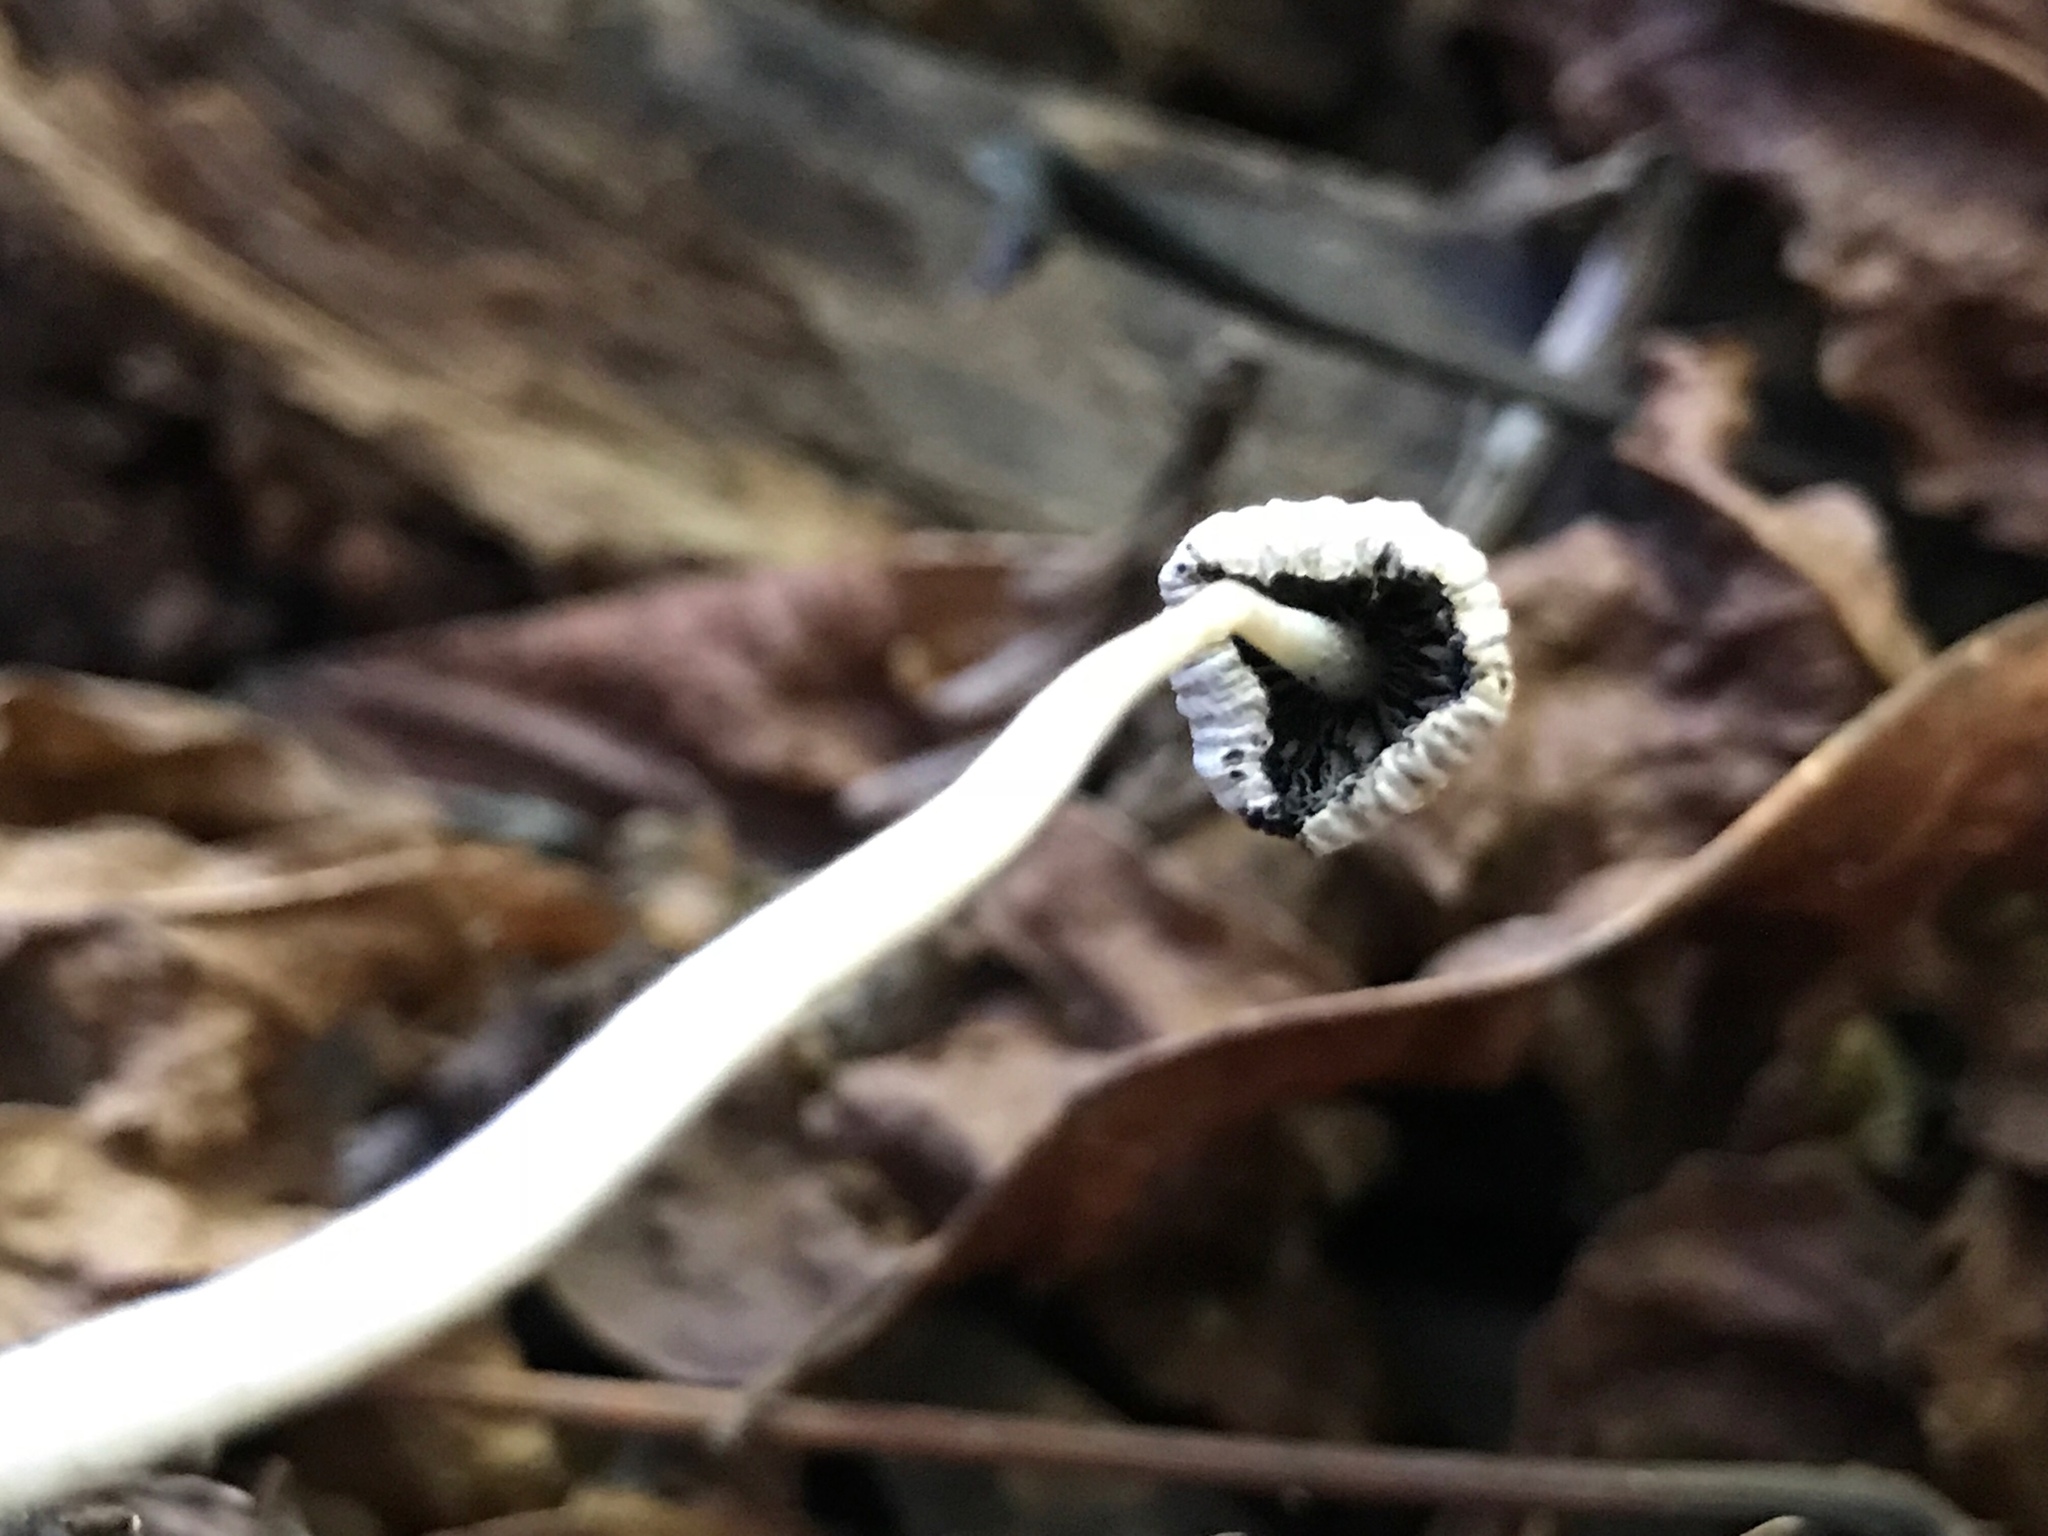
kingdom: Fungi
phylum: Basidiomycota
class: Agaricomycetes
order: Agaricales
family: Psathyrellaceae
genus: Psathyrella
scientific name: Psathyrella longipes
